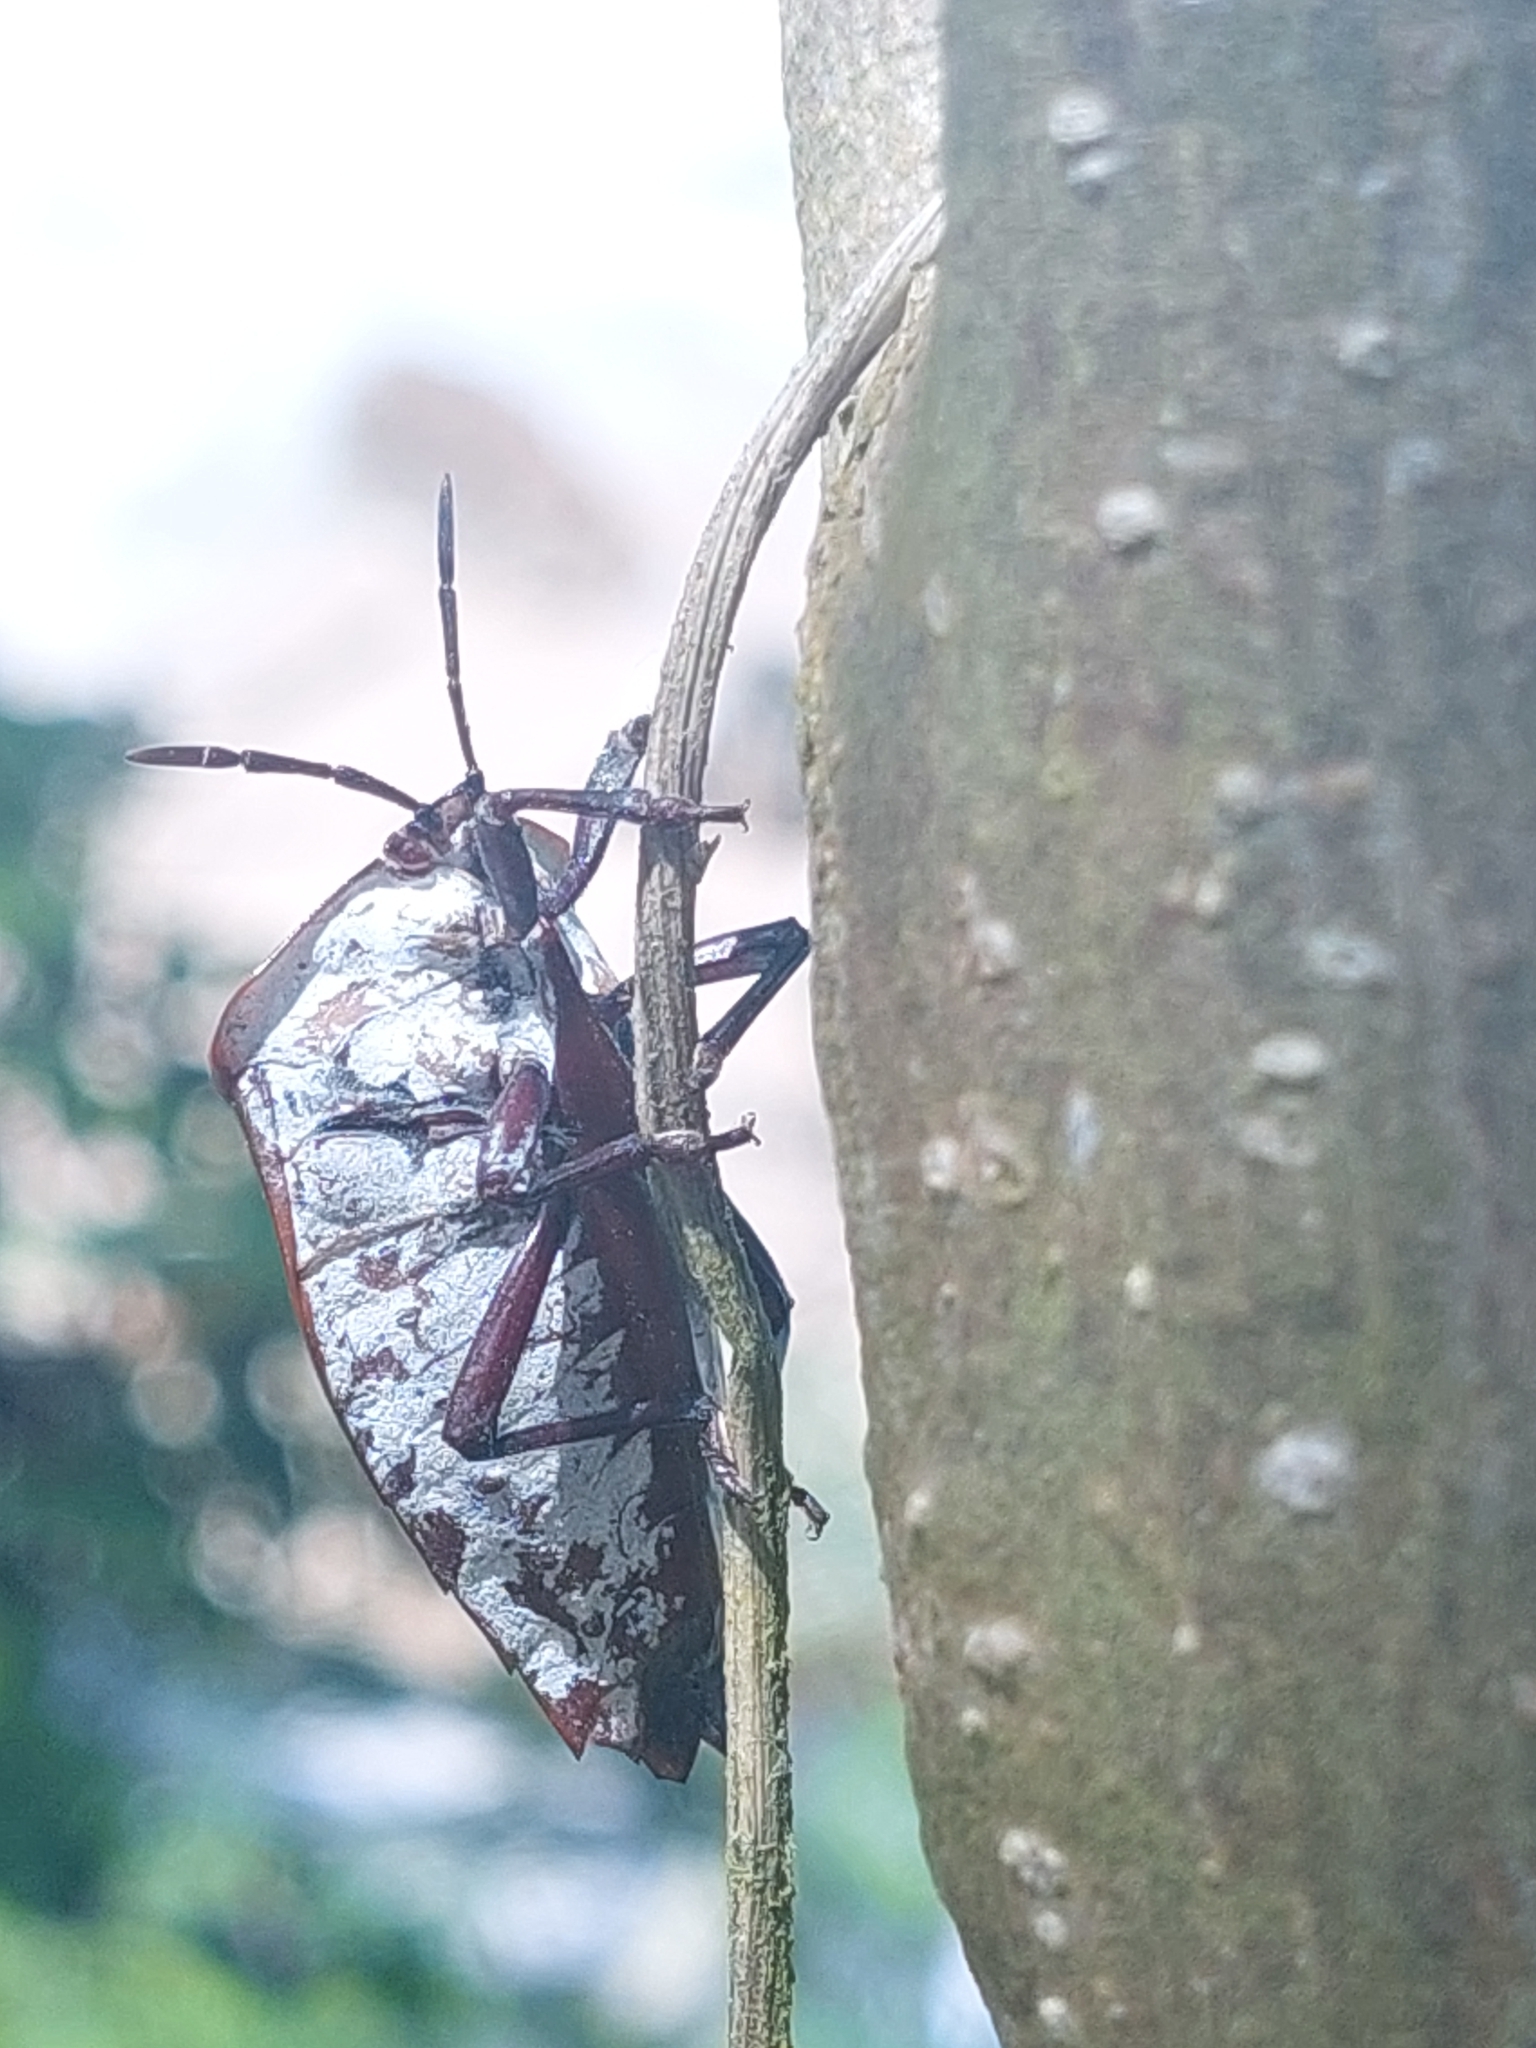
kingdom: Animalia
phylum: Arthropoda
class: Insecta
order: Hemiptera
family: Tessaratomidae
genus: Tessaratoma
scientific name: Tessaratoma papillosa
